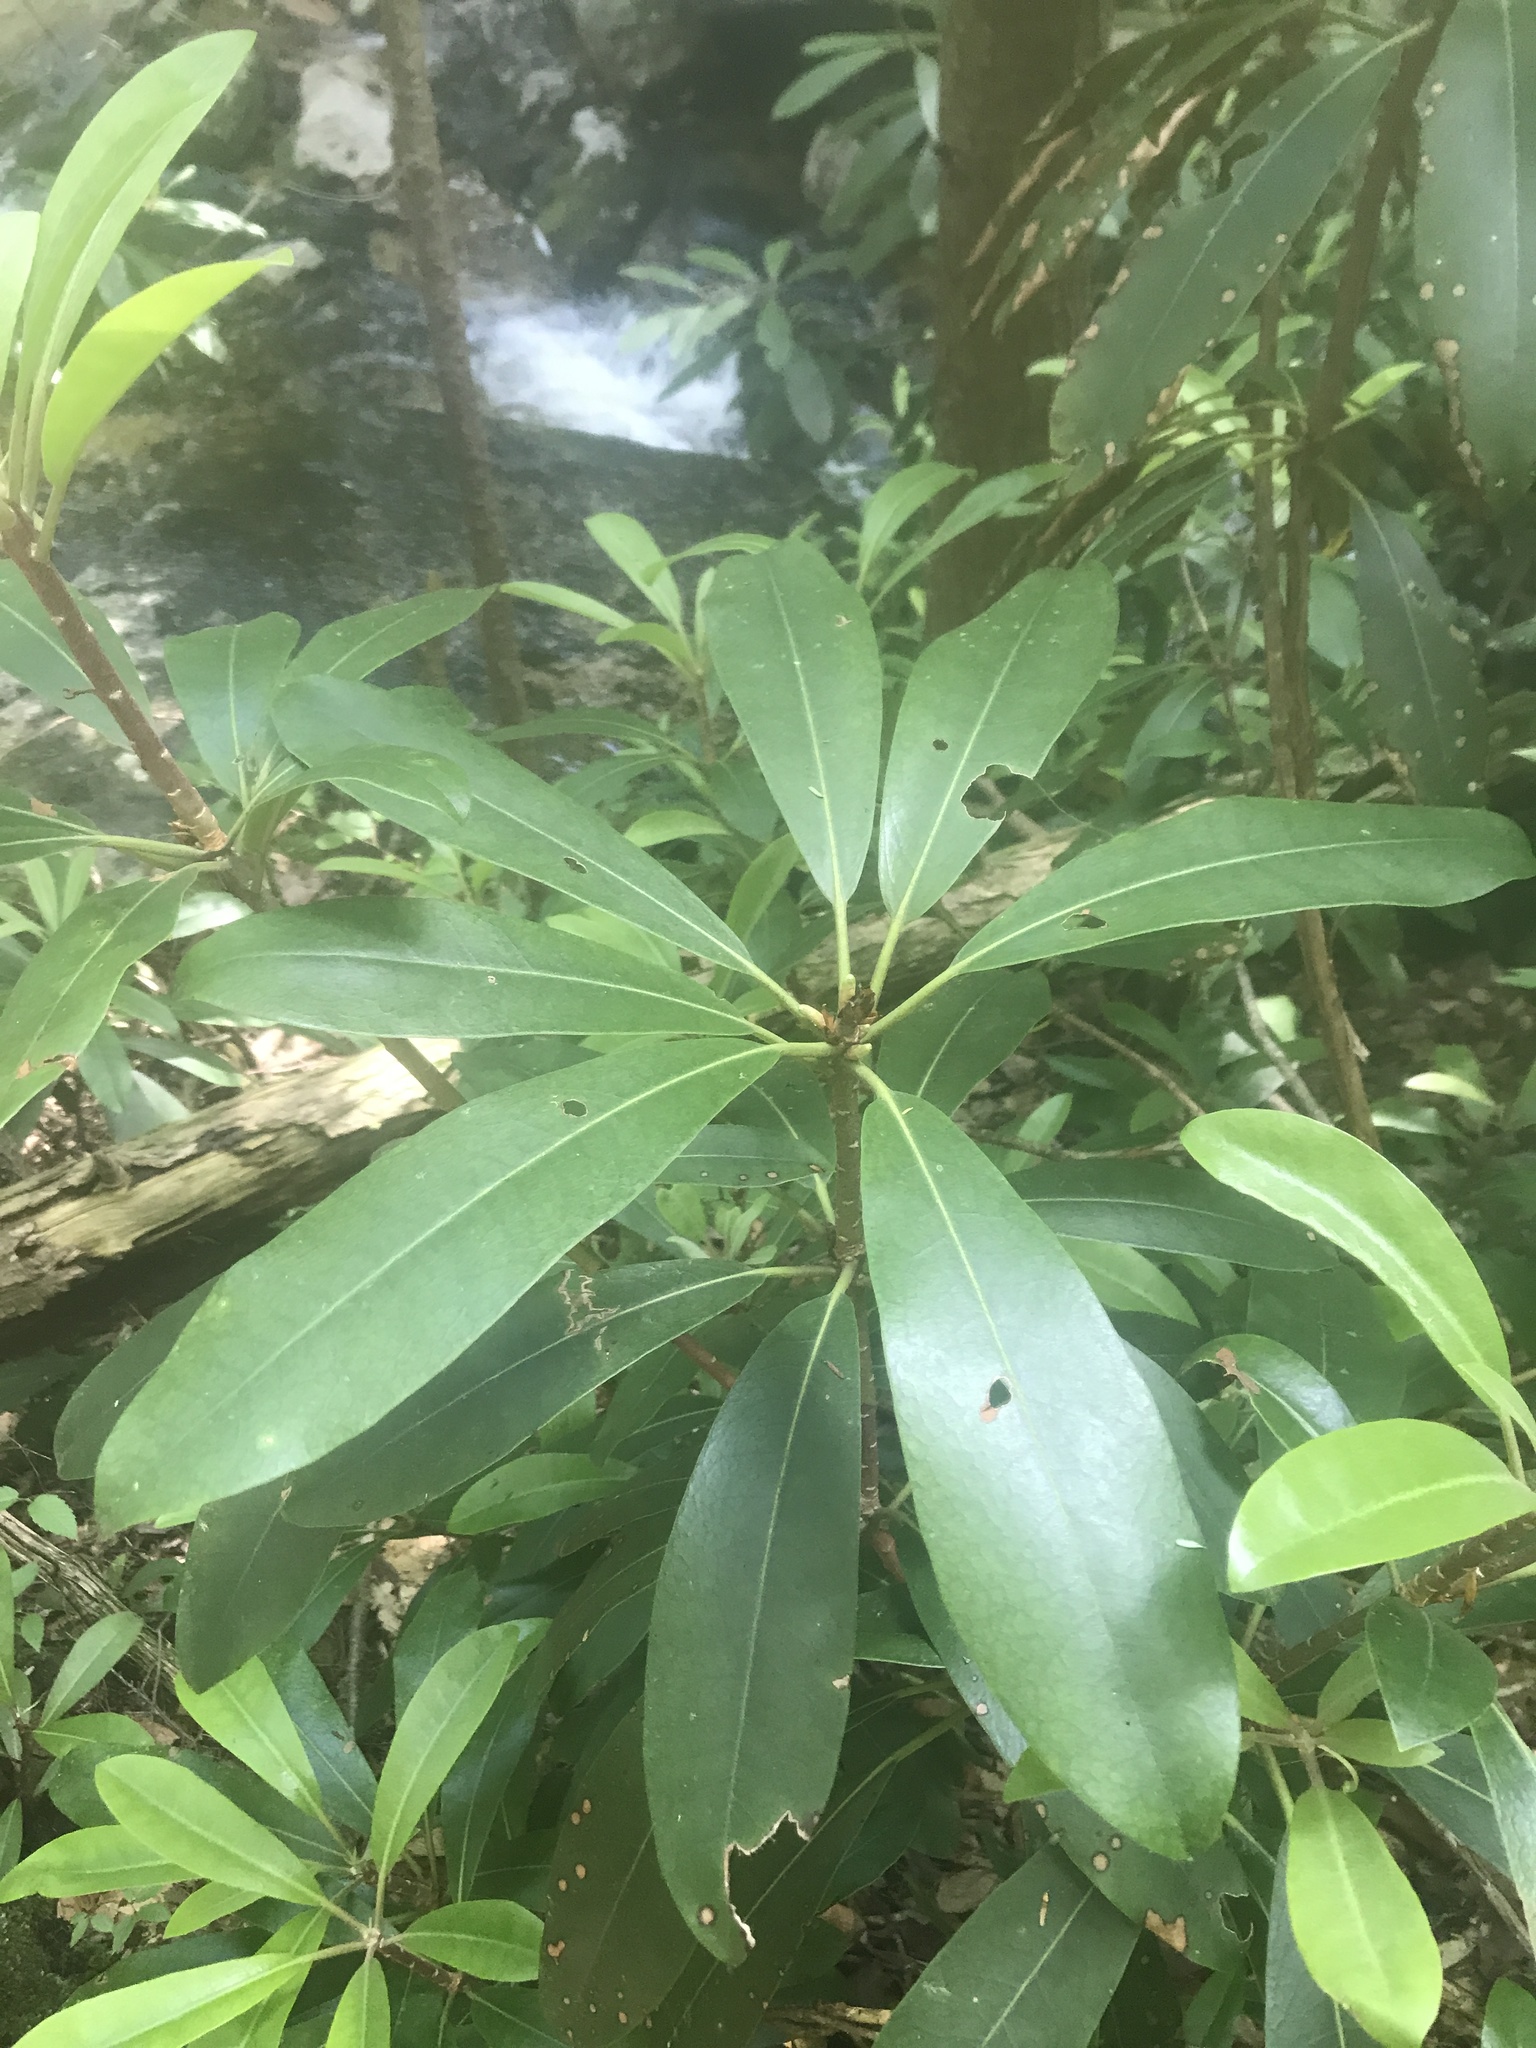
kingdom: Plantae
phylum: Tracheophyta
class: Magnoliopsida
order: Ericales
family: Ericaceae
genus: Rhododendron
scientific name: Rhododendron maximum
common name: Great rhododendron
